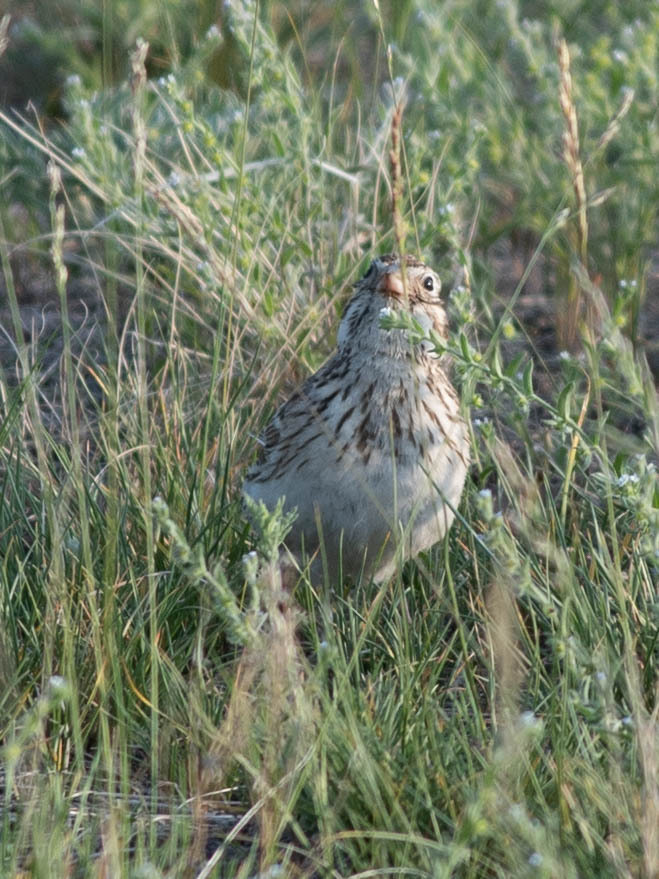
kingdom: Animalia
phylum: Chordata
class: Aves
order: Passeriformes
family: Passerellidae
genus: Pooecetes
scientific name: Pooecetes gramineus
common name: Vesper sparrow
